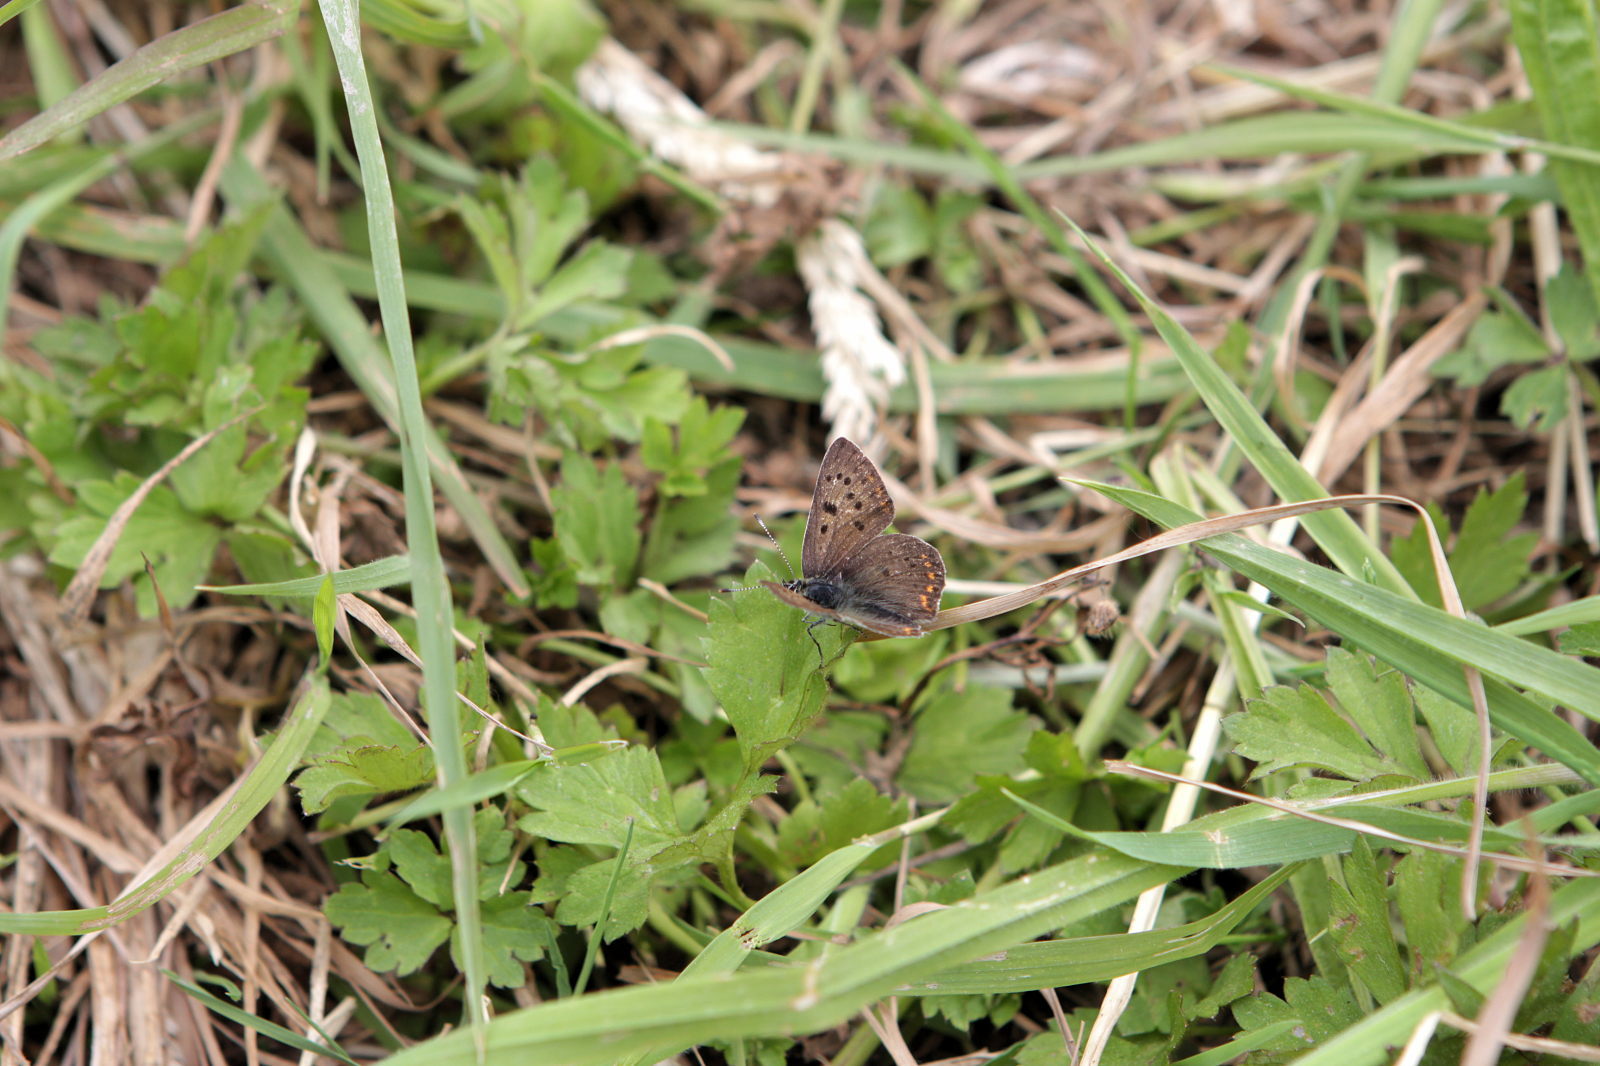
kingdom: Animalia
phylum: Arthropoda
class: Insecta
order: Lepidoptera
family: Lycaenidae
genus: Loweia
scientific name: Loweia tityrus
